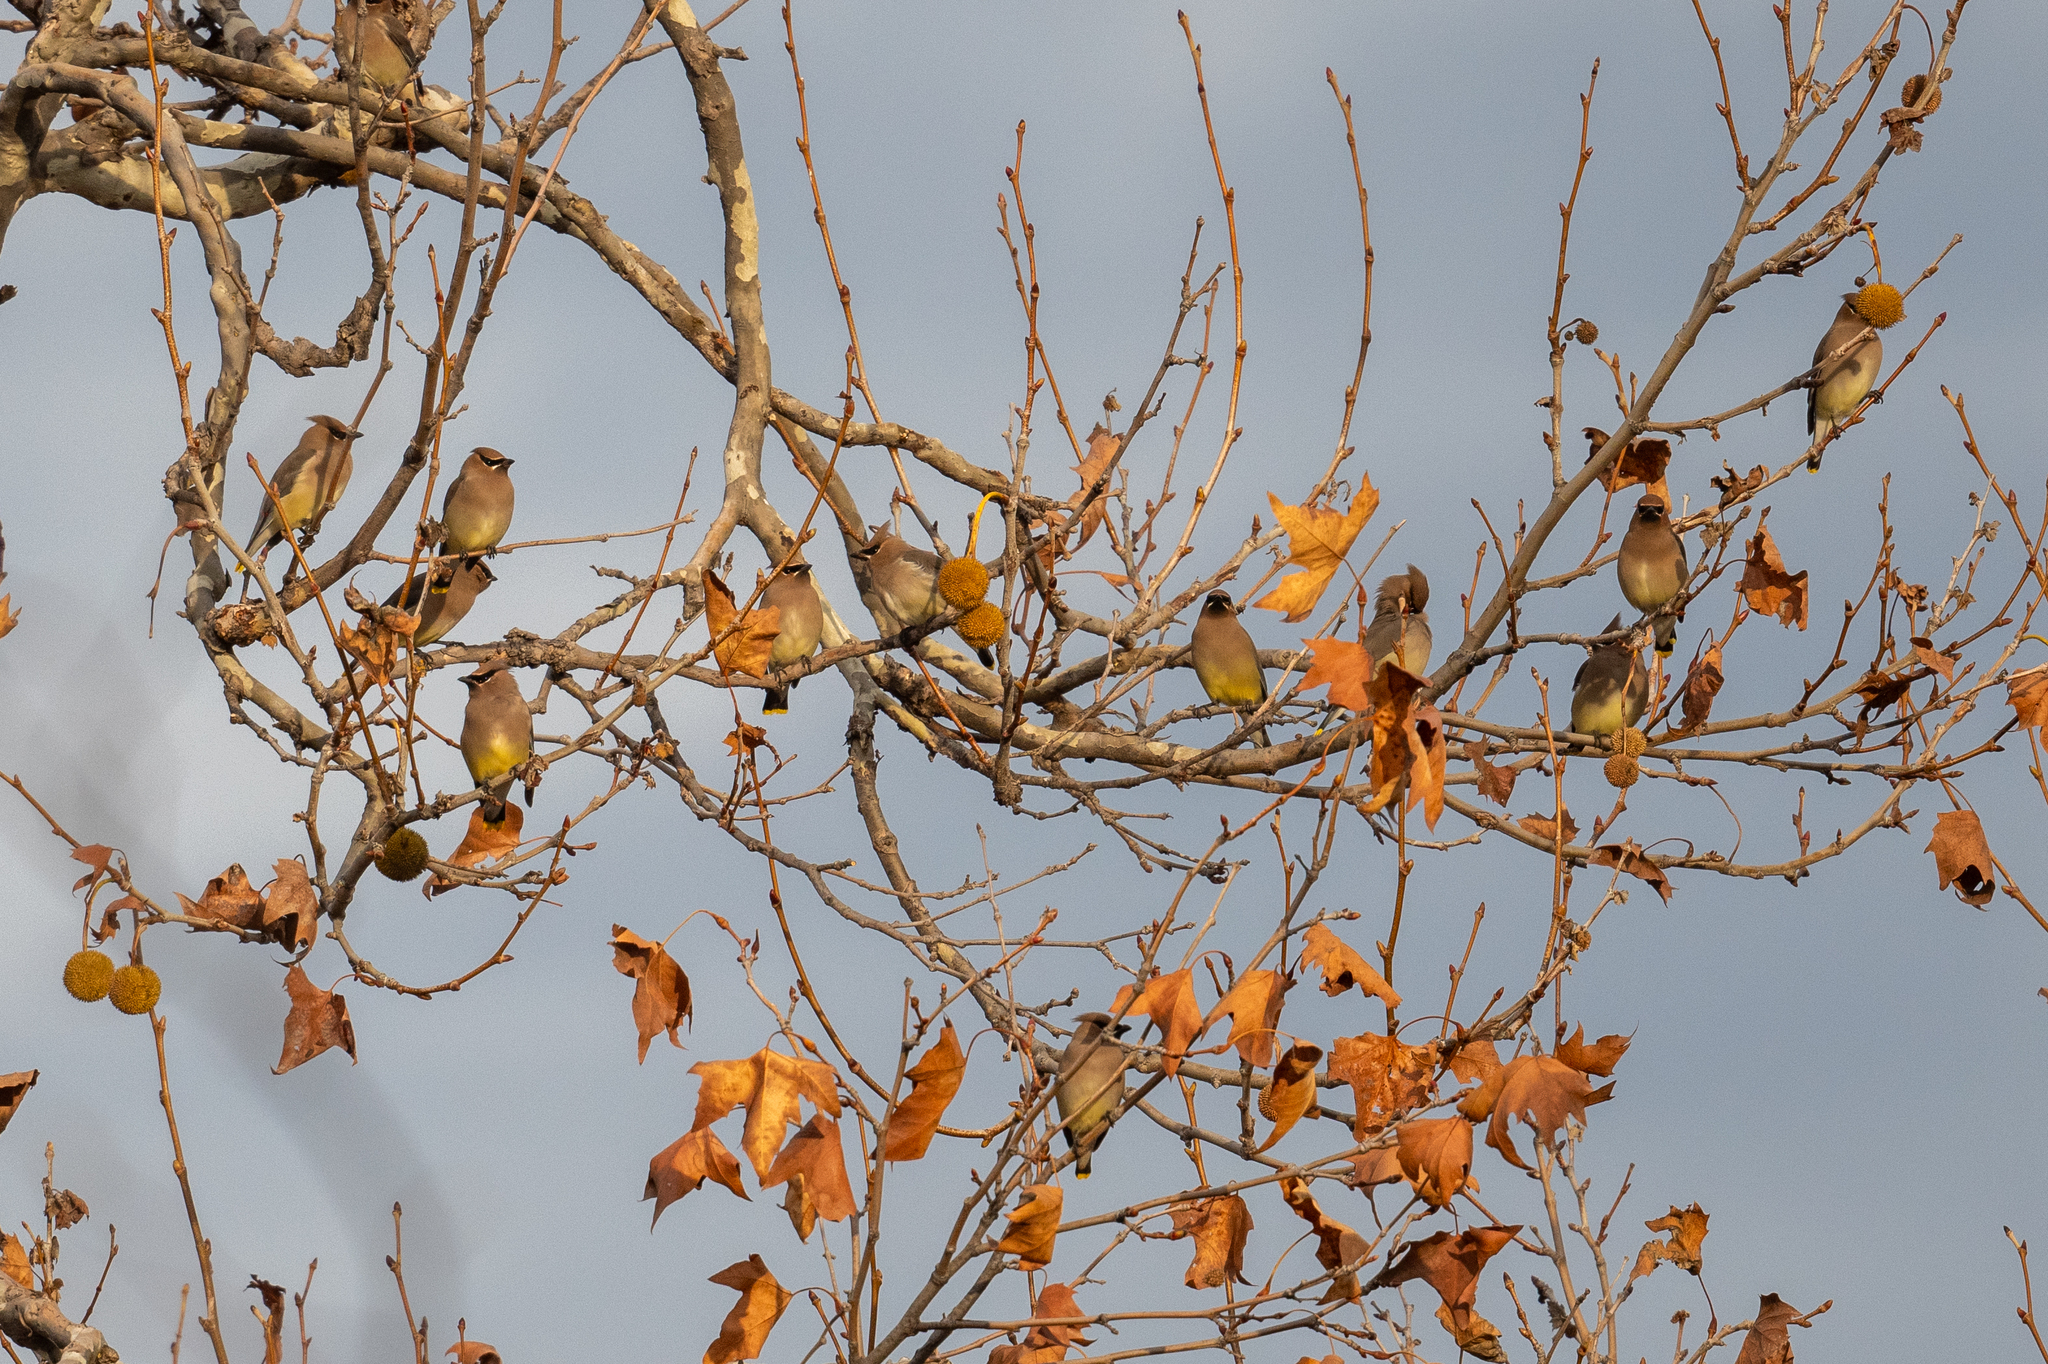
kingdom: Animalia
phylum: Chordata
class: Aves
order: Passeriformes
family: Bombycillidae
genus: Bombycilla
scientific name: Bombycilla cedrorum
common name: Cedar waxwing
